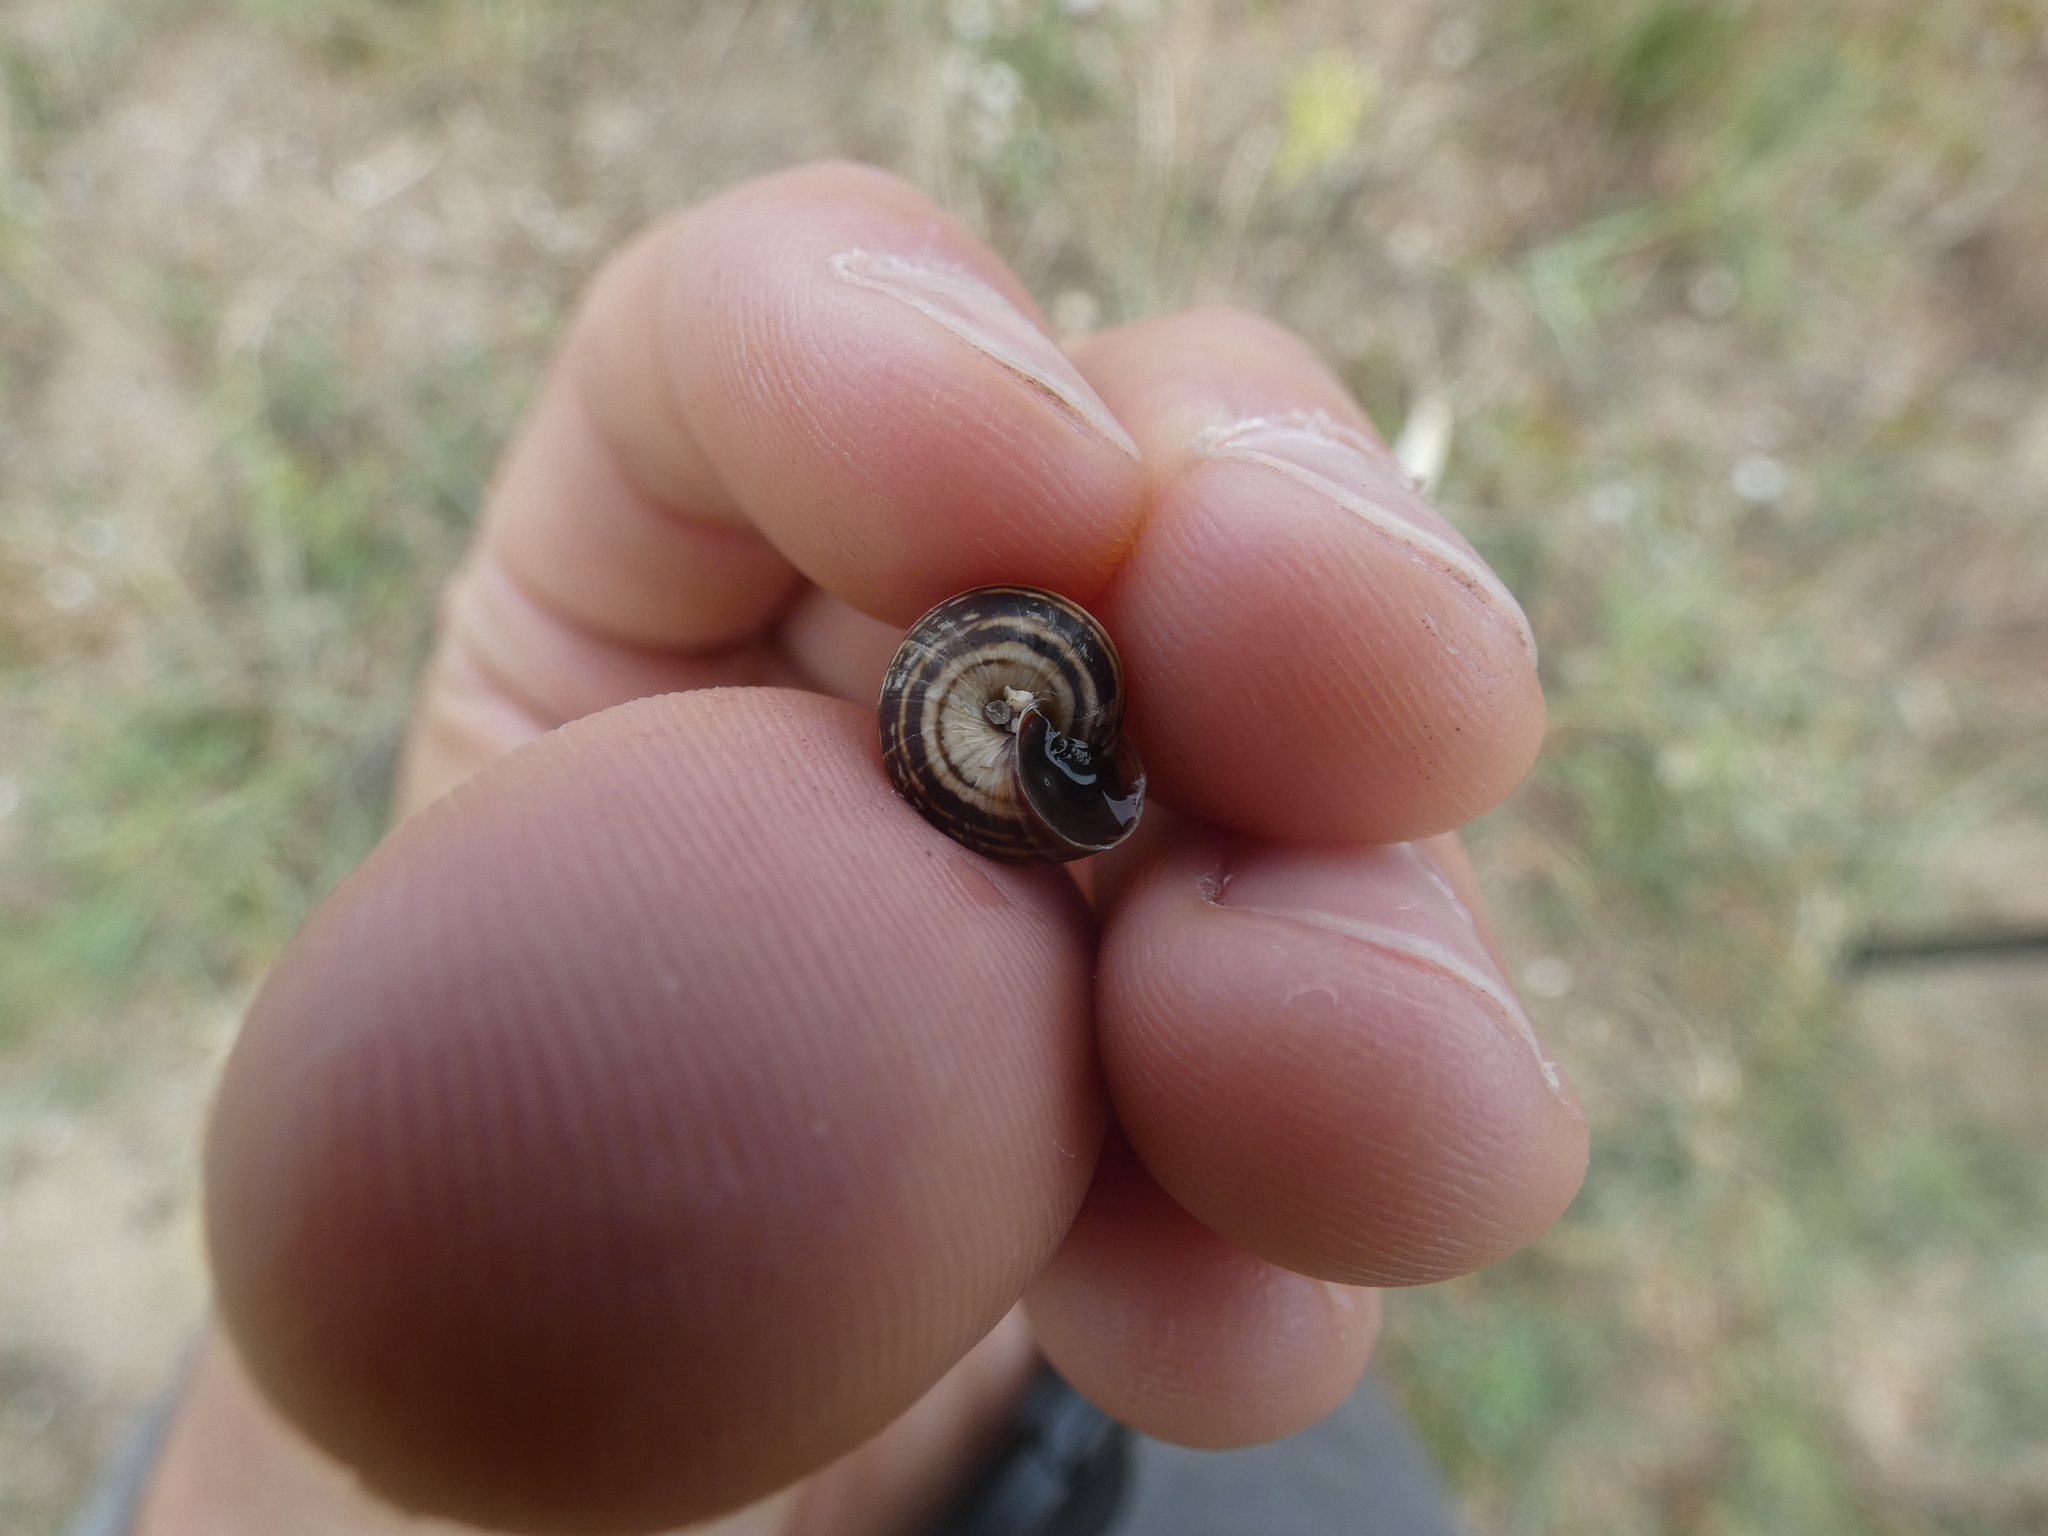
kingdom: Animalia
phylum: Mollusca
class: Gastropoda
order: Stylommatophora
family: Geomitridae
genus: Cernuella
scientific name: Cernuella virgata
